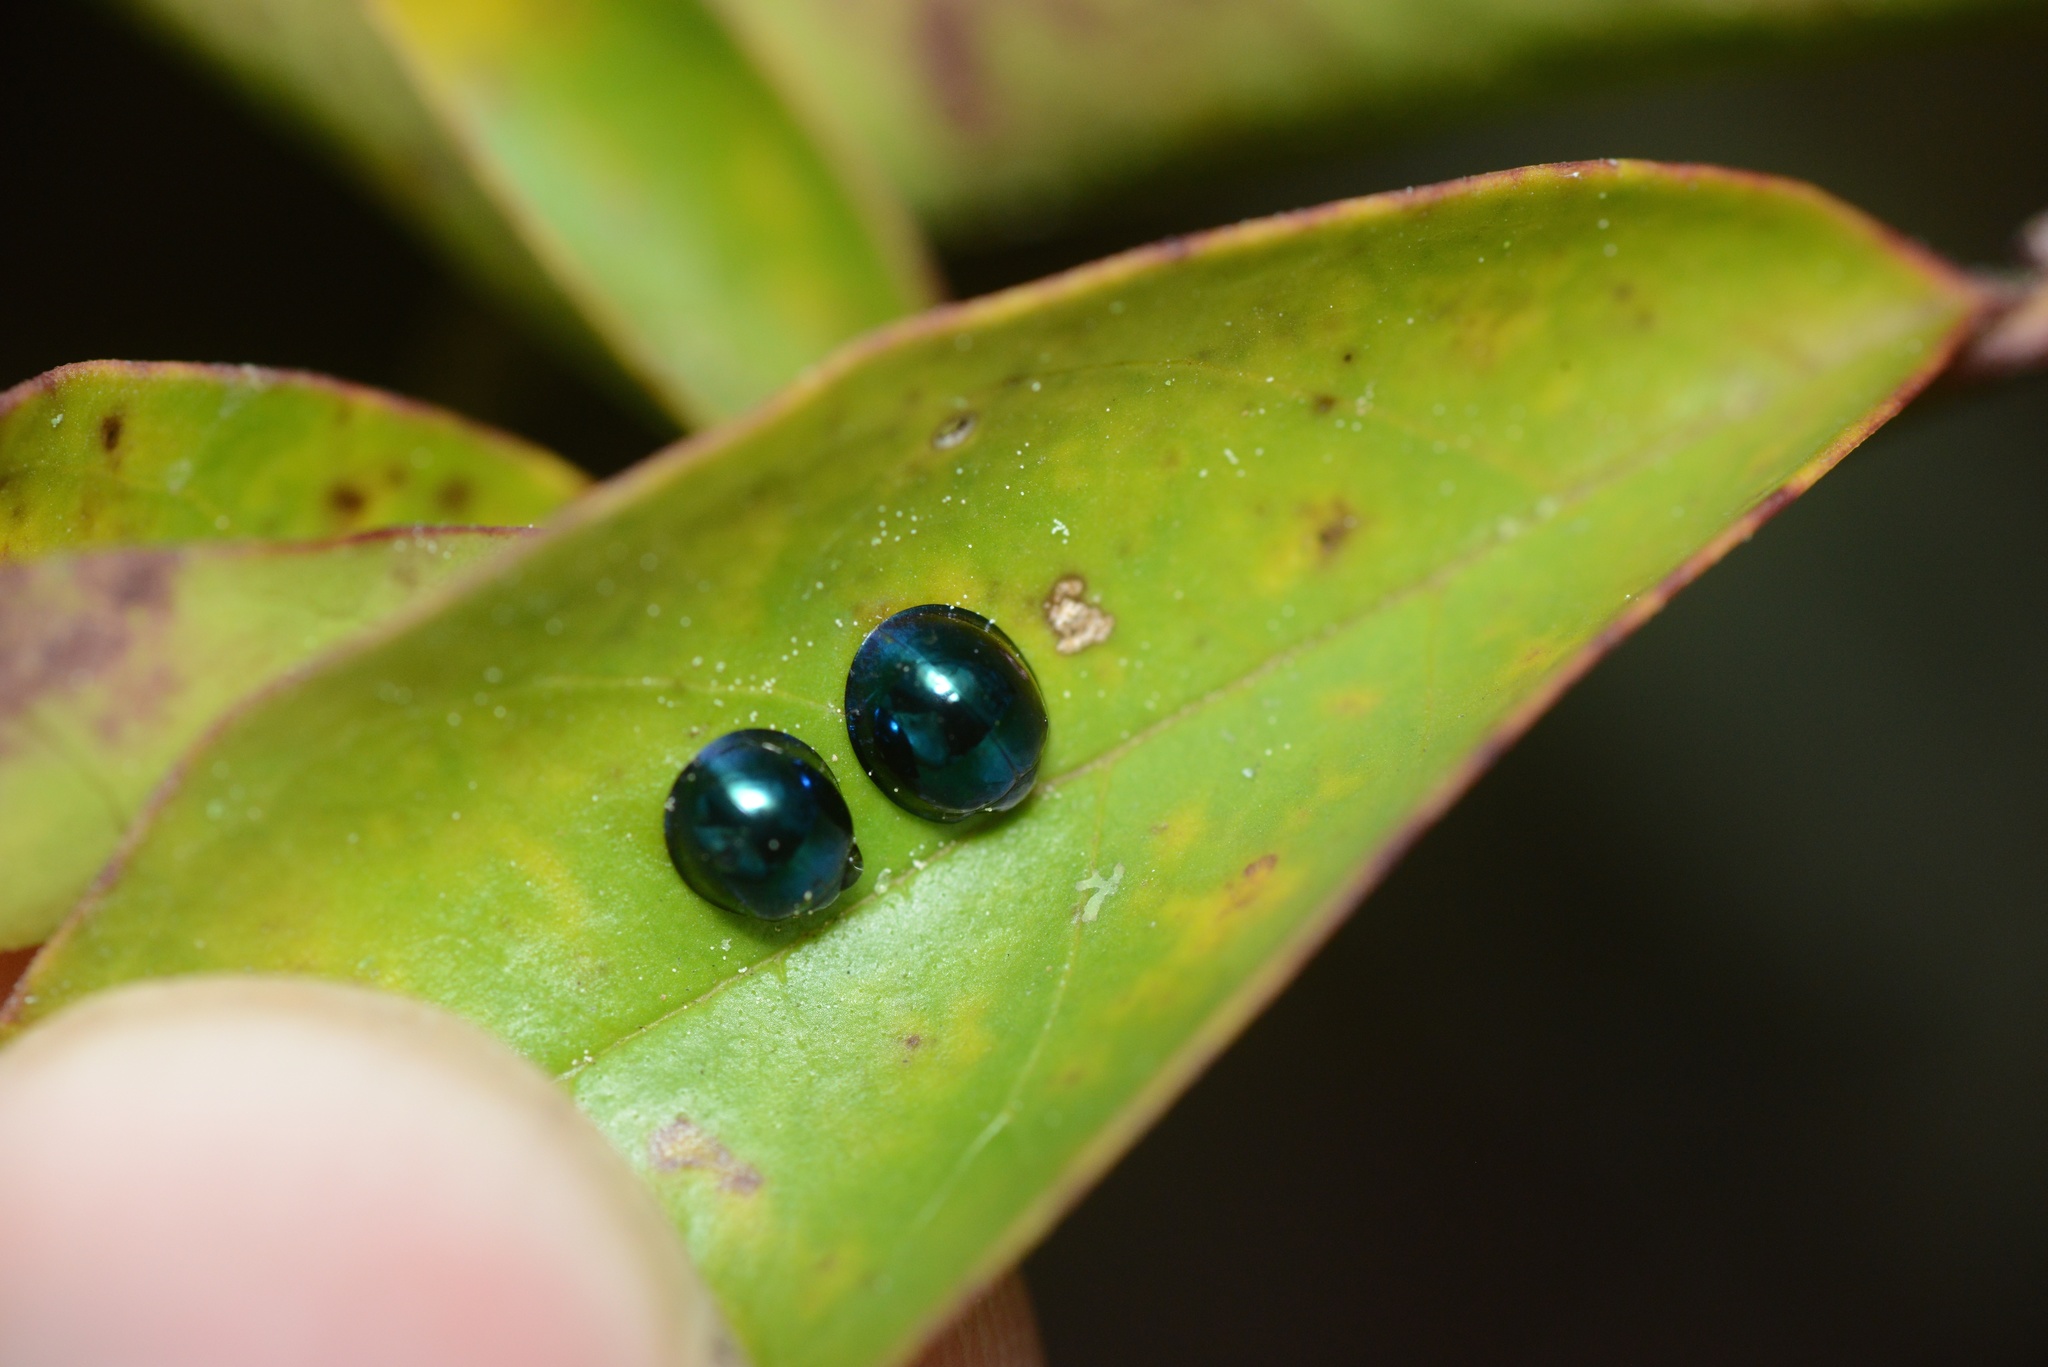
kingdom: Animalia
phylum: Arthropoda
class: Insecta
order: Coleoptera
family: Coccinellidae
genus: Halmus
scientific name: Halmus chalybeus
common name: Steel blue ladybird beetle
